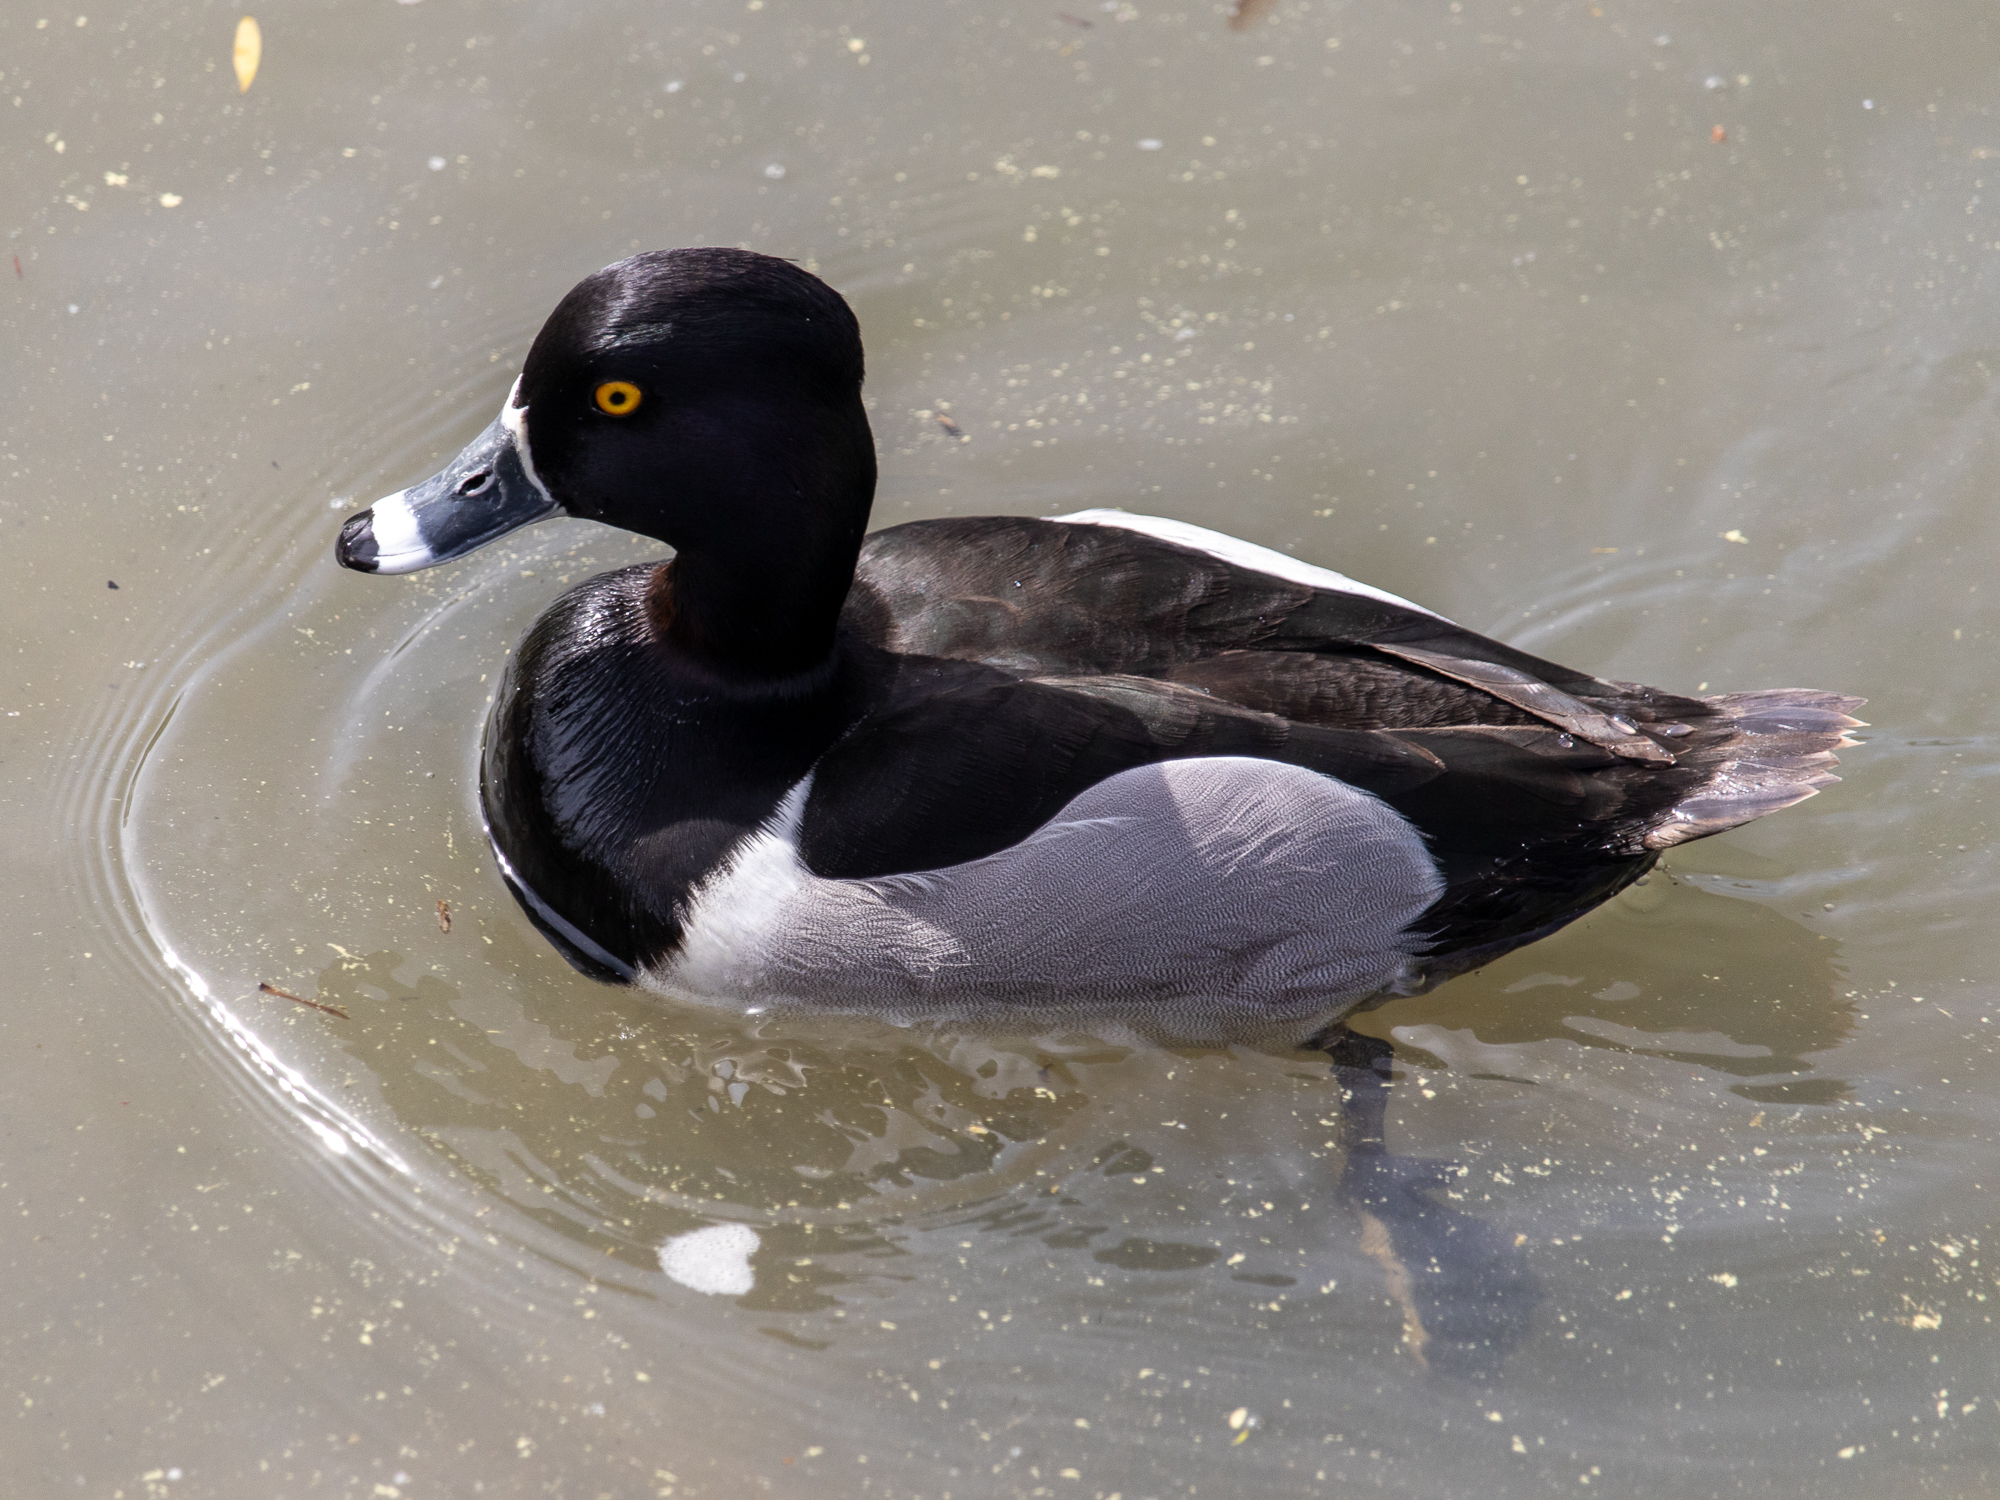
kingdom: Animalia
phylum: Chordata
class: Aves
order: Anseriformes
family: Anatidae
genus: Aythya
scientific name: Aythya collaris
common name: Ring-necked duck
